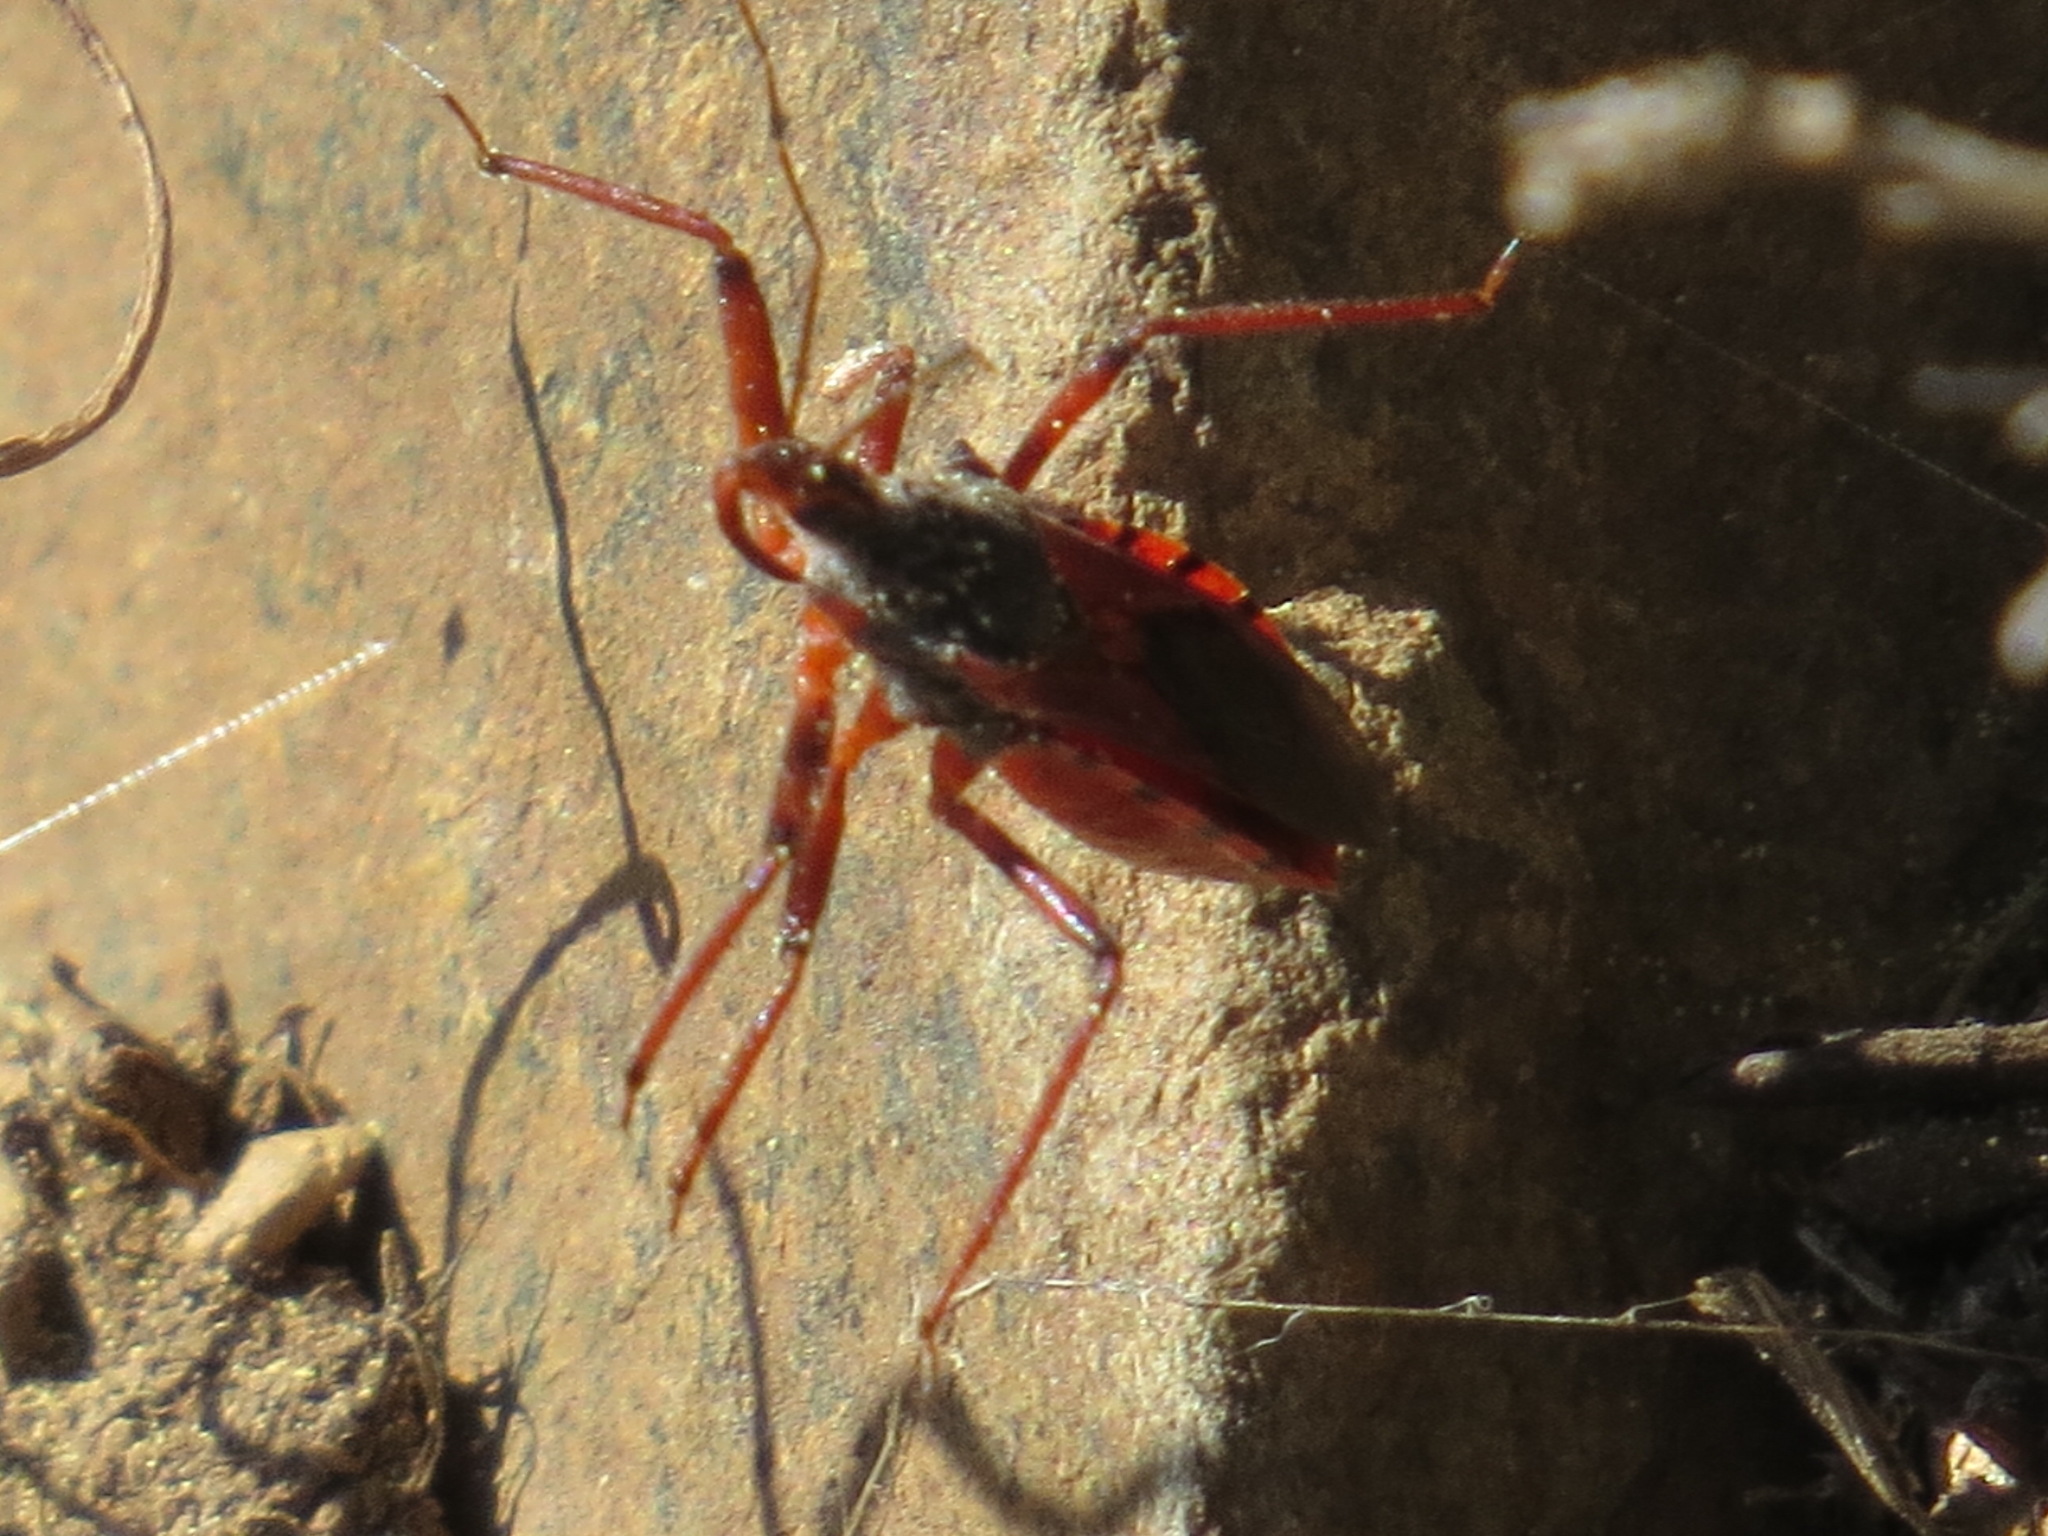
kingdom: Animalia
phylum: Arthropoda
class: Insecta
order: Hemiptera
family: Reduviidae
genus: Rhynocoris
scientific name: Rhynocoris ventralis
